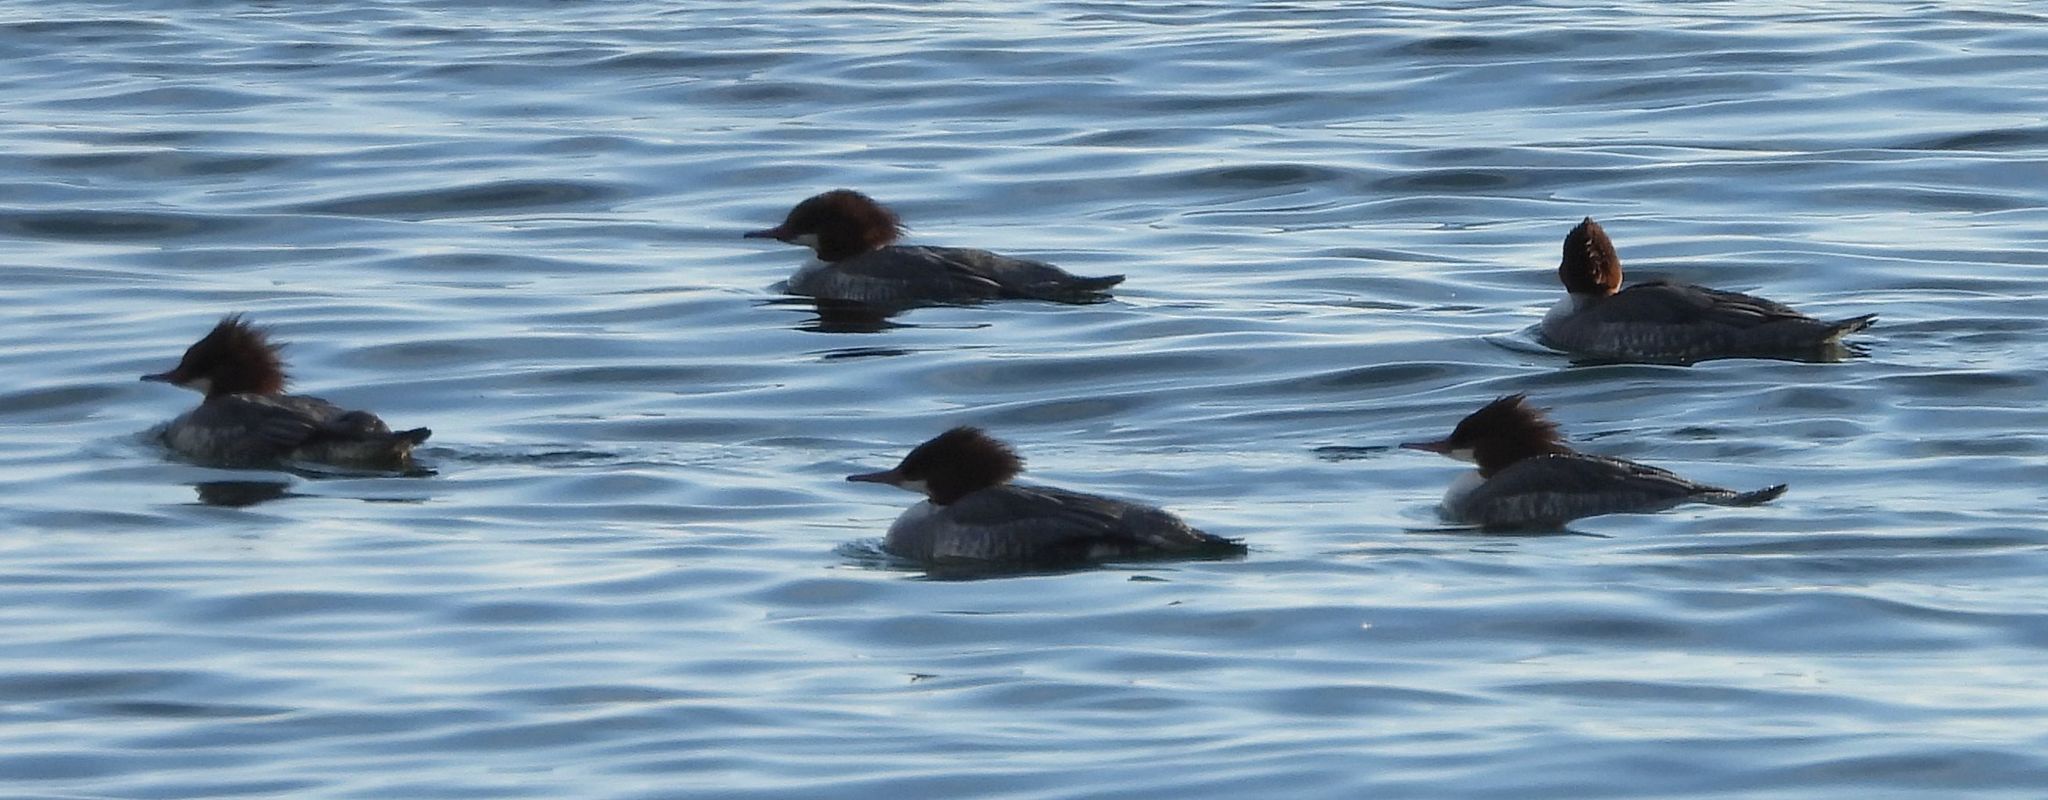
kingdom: Animalia
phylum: Chordata
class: Aves
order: Anseriformes
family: Anatidae
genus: Mergus
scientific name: Mergus merganser
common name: Common merganser
